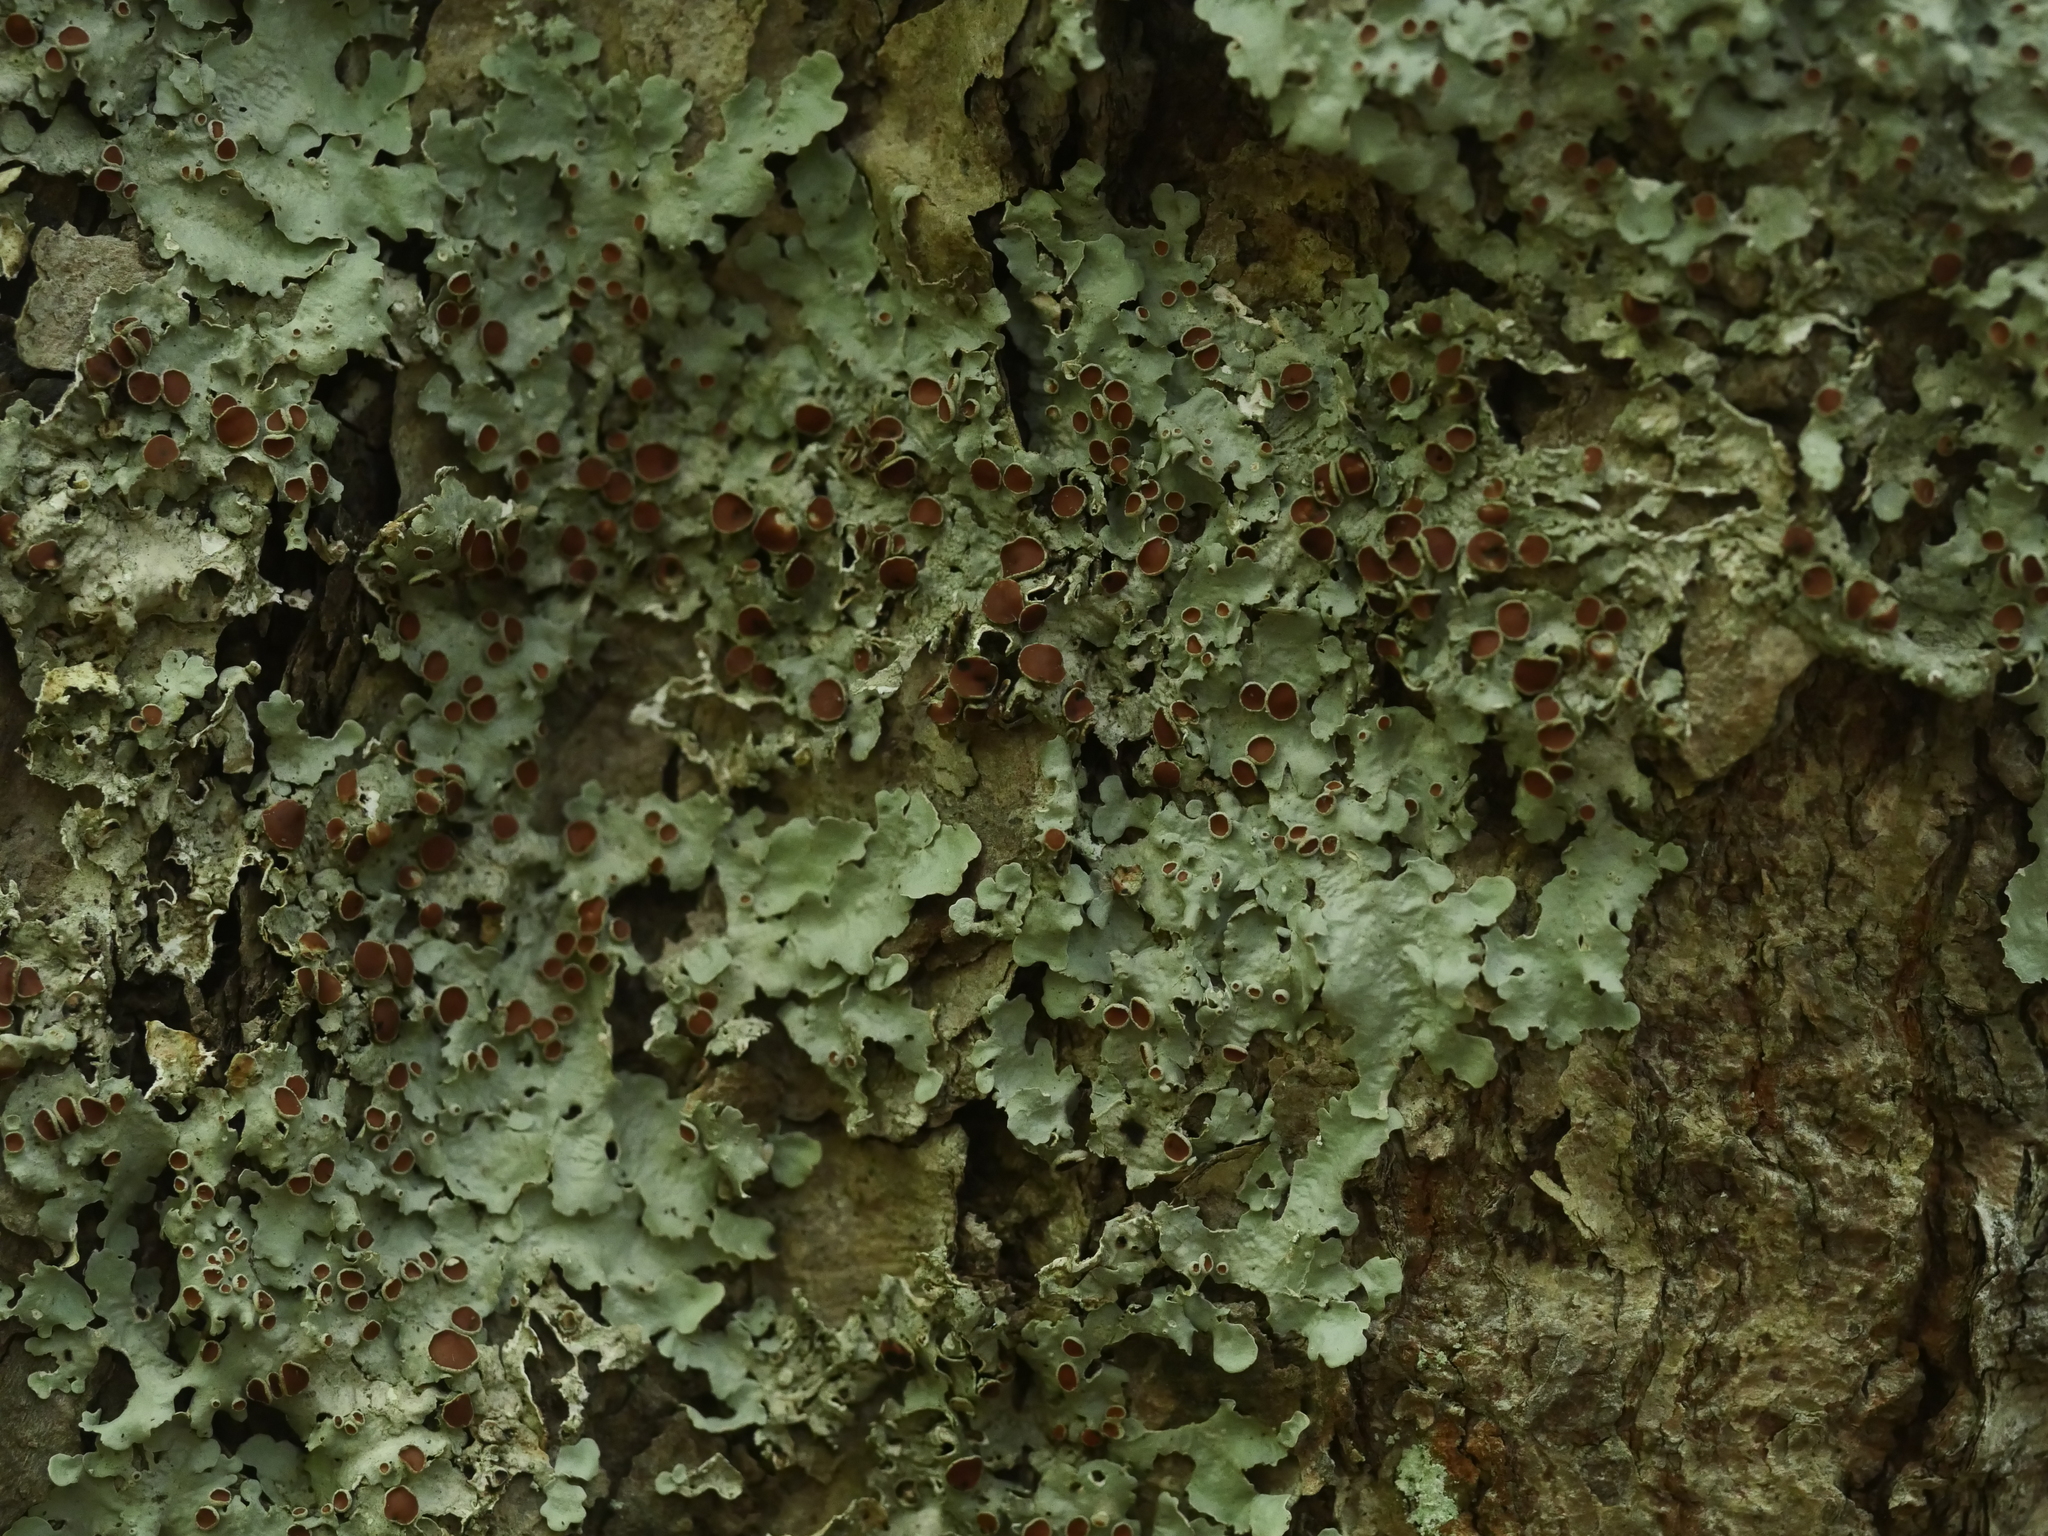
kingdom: Fungi
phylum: Ascomycota
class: Lecanoromycetes
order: Peltigerales
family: Lobariaceae
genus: Ricasolia
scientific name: Ricasolia quercizans
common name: Smooth lungwort
